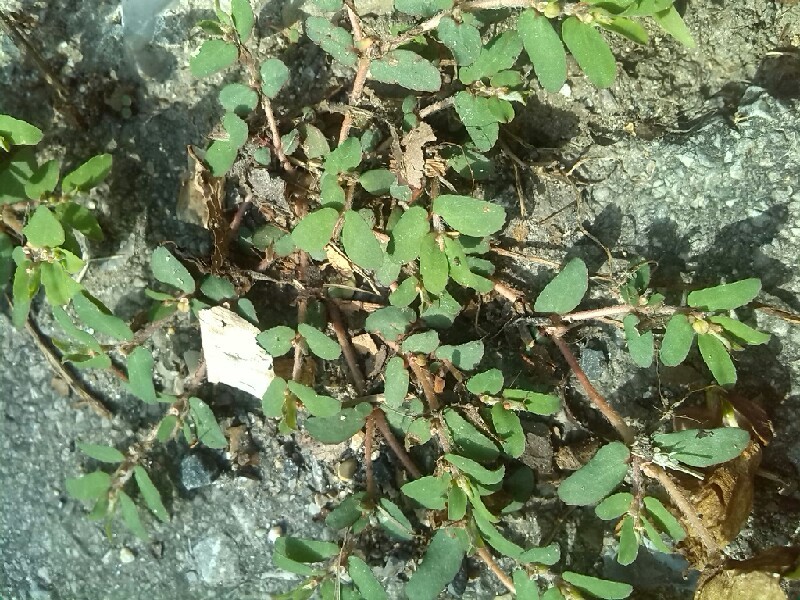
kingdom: Plantae
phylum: Tracheophyta
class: Magnoliopsida
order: Malpighiales
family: Euphorbiaceae
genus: Euphorbia
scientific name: Euphorbia maculata
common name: Spotted spurge
